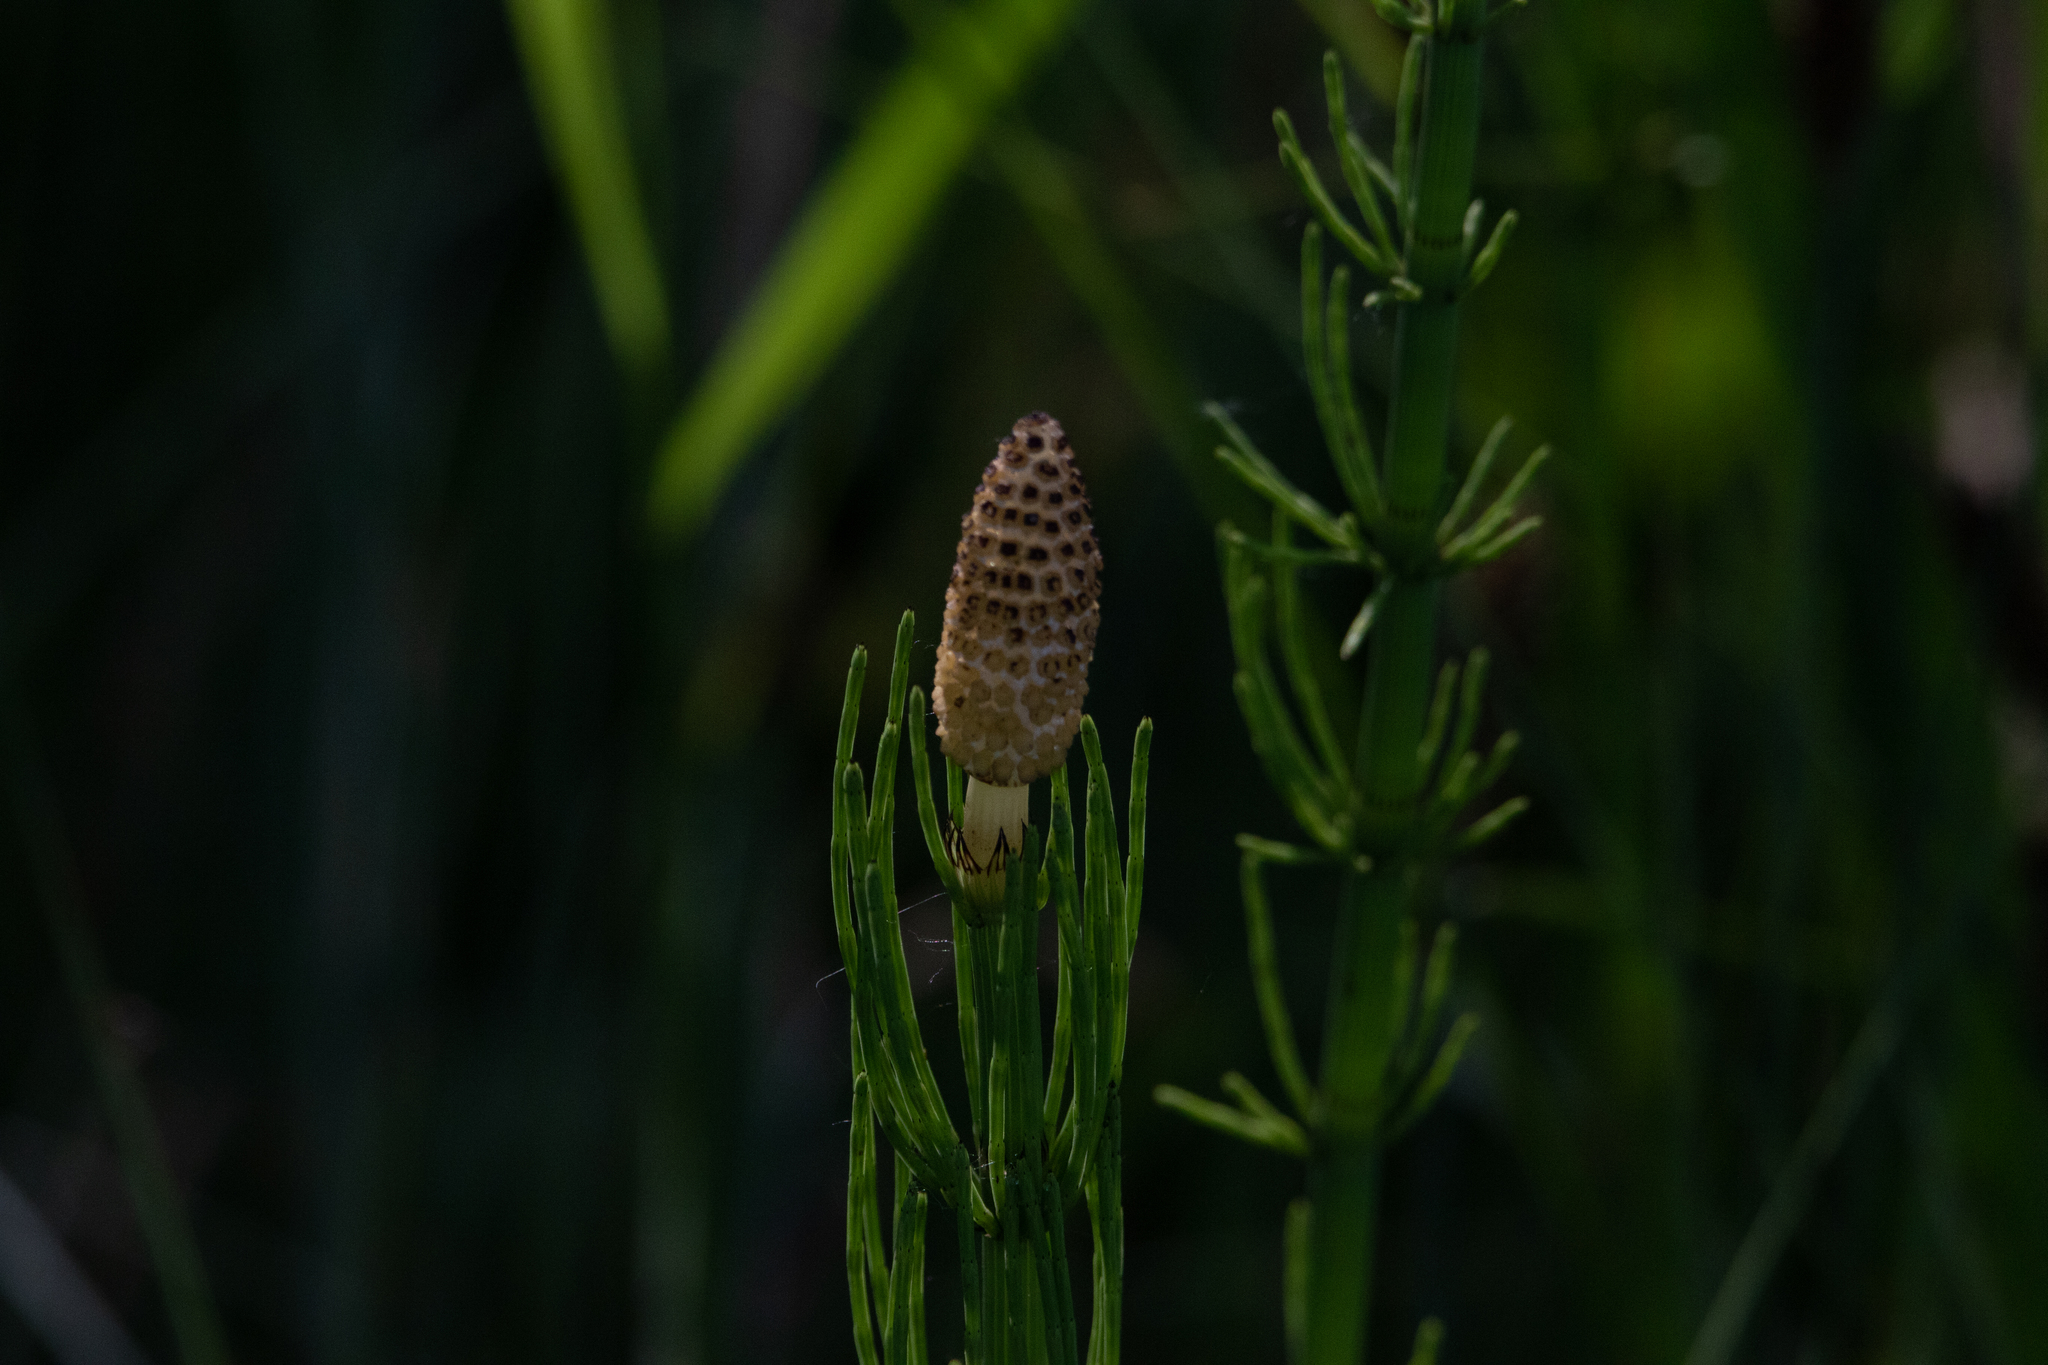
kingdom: Plantae
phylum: Tracheophyta
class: Polypodiopsida
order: Equisetales
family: Equisetaceae
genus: Equisetum
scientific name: Equisetum fluviatile
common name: Water horsetail
